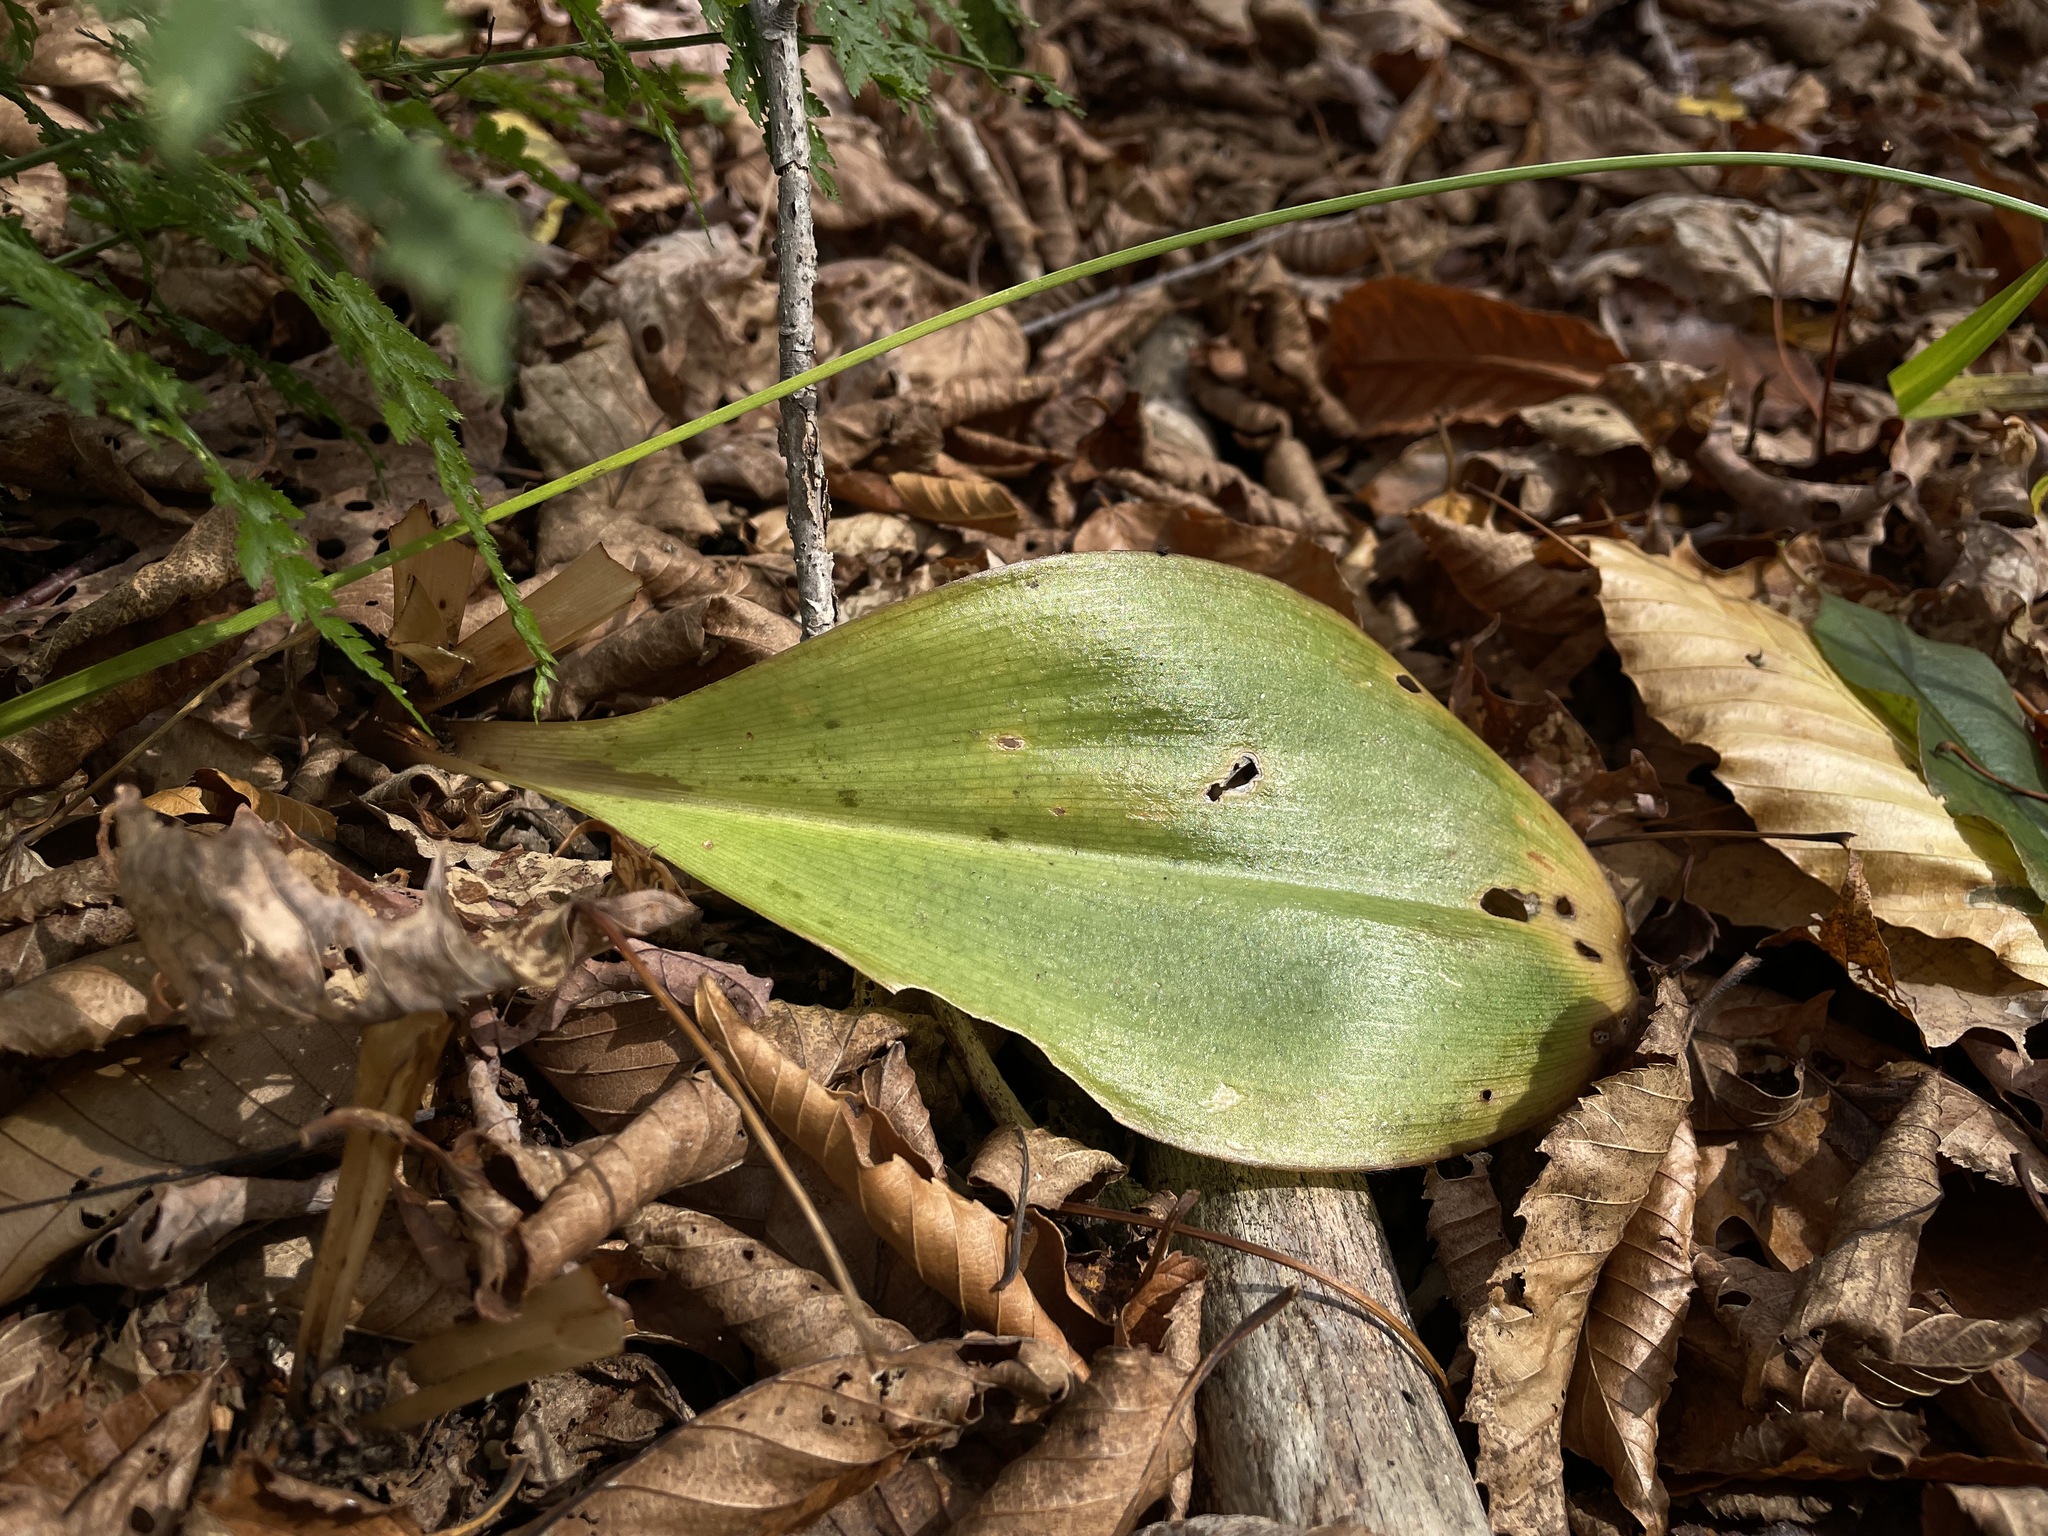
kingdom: Plantae
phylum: Tracheophyta
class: Liliopsida
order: Liliales
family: Liliaceae
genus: Clintonia
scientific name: Clintonia borealis
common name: Yellow clintonia
